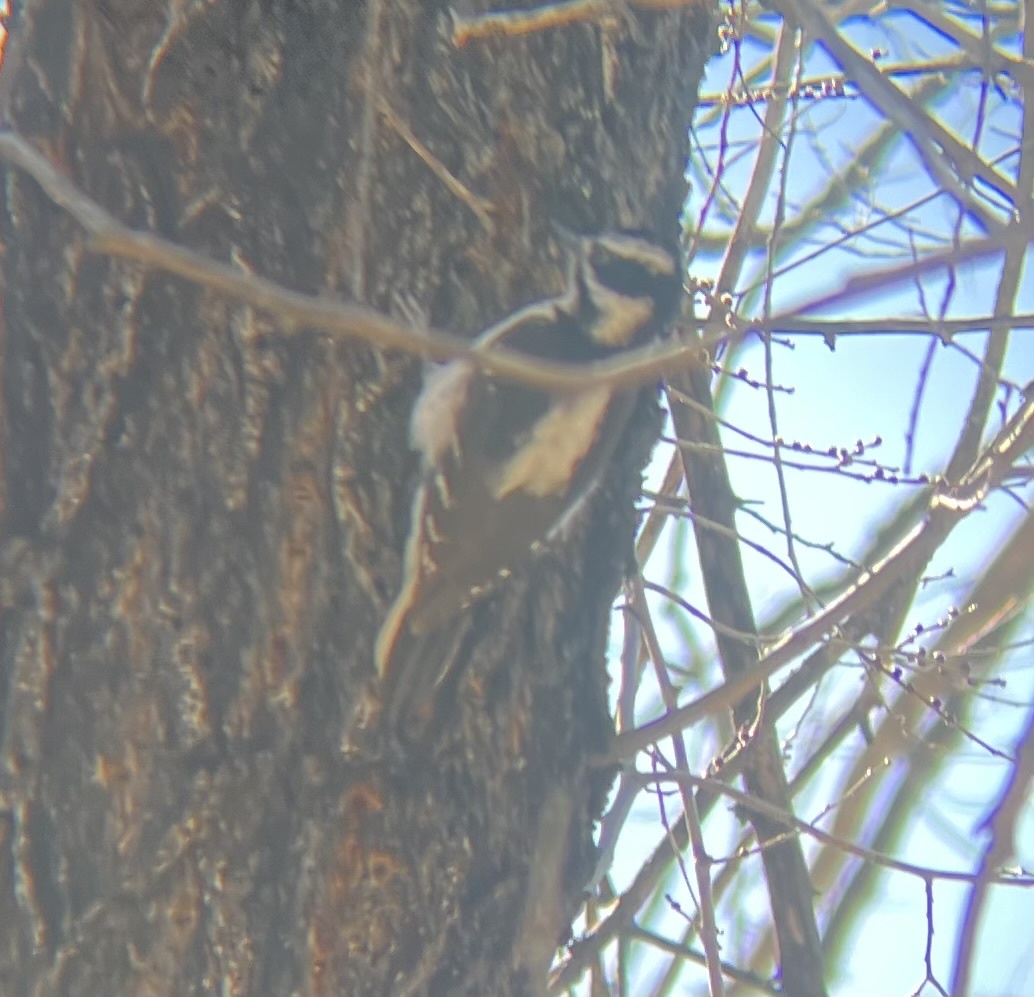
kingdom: Animalia
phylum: Chordata
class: Aves
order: Piciformes
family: Picidae
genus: Leuconotopicus
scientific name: Leuconotopicus villosus
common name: Hairy woodpecker
